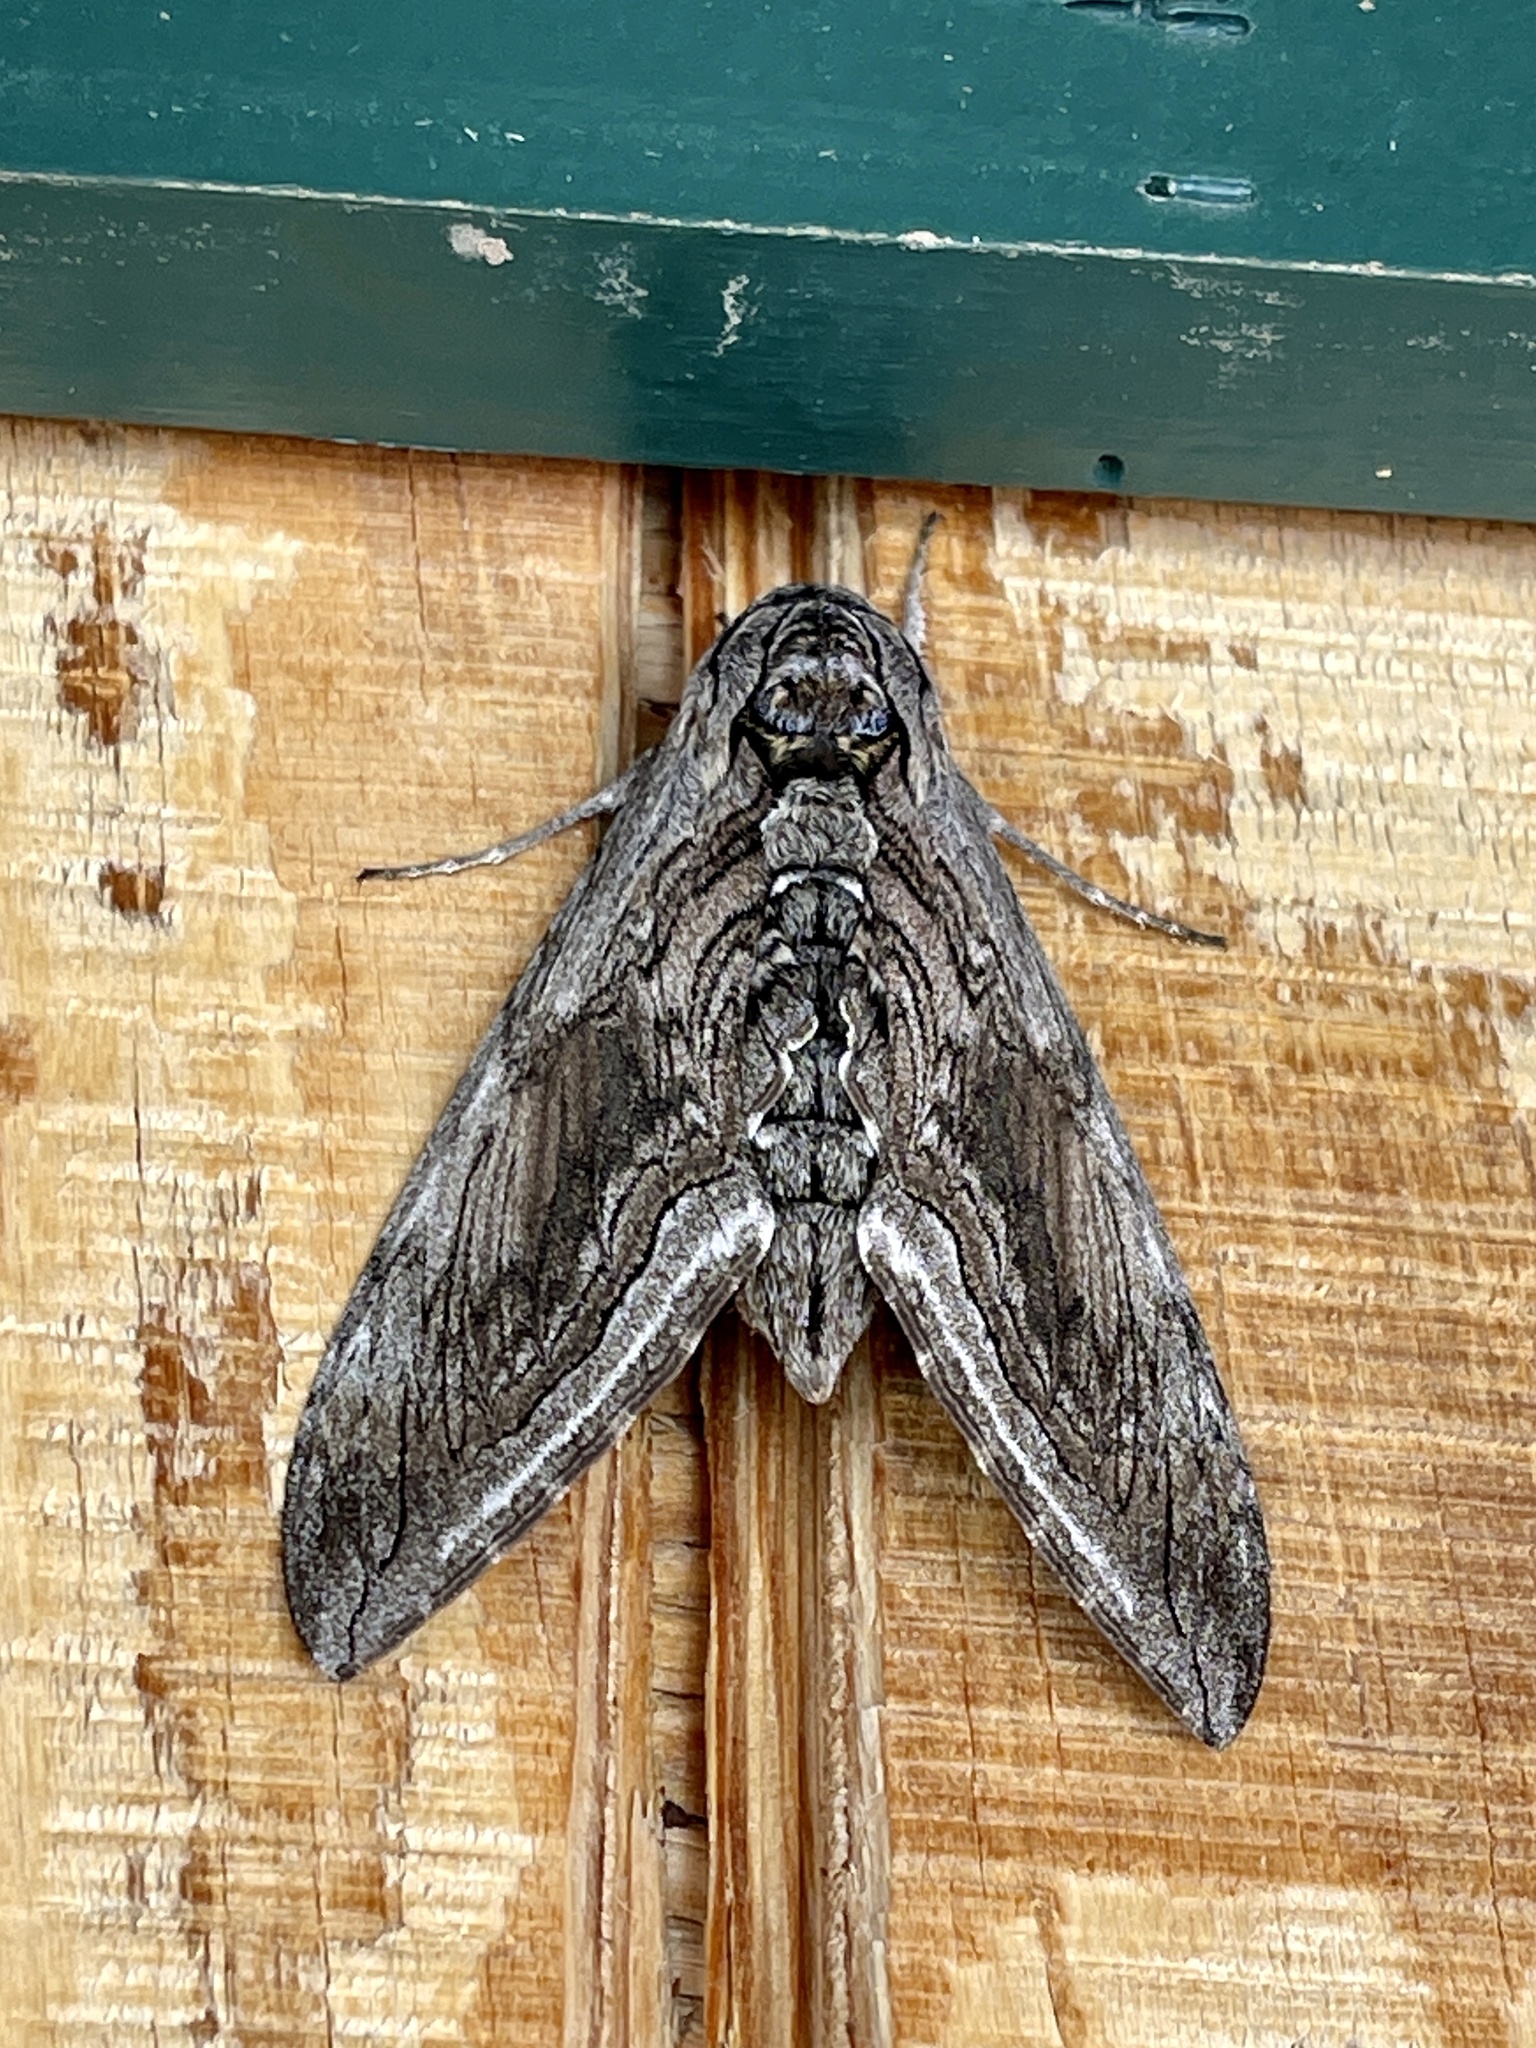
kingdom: Animalia
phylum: Arthropoda
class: Insecta
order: Lepidoptera
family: Sphingidae
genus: Manduca
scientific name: Manduca quinquemaculatus
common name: Five-spotted hawk-moth
